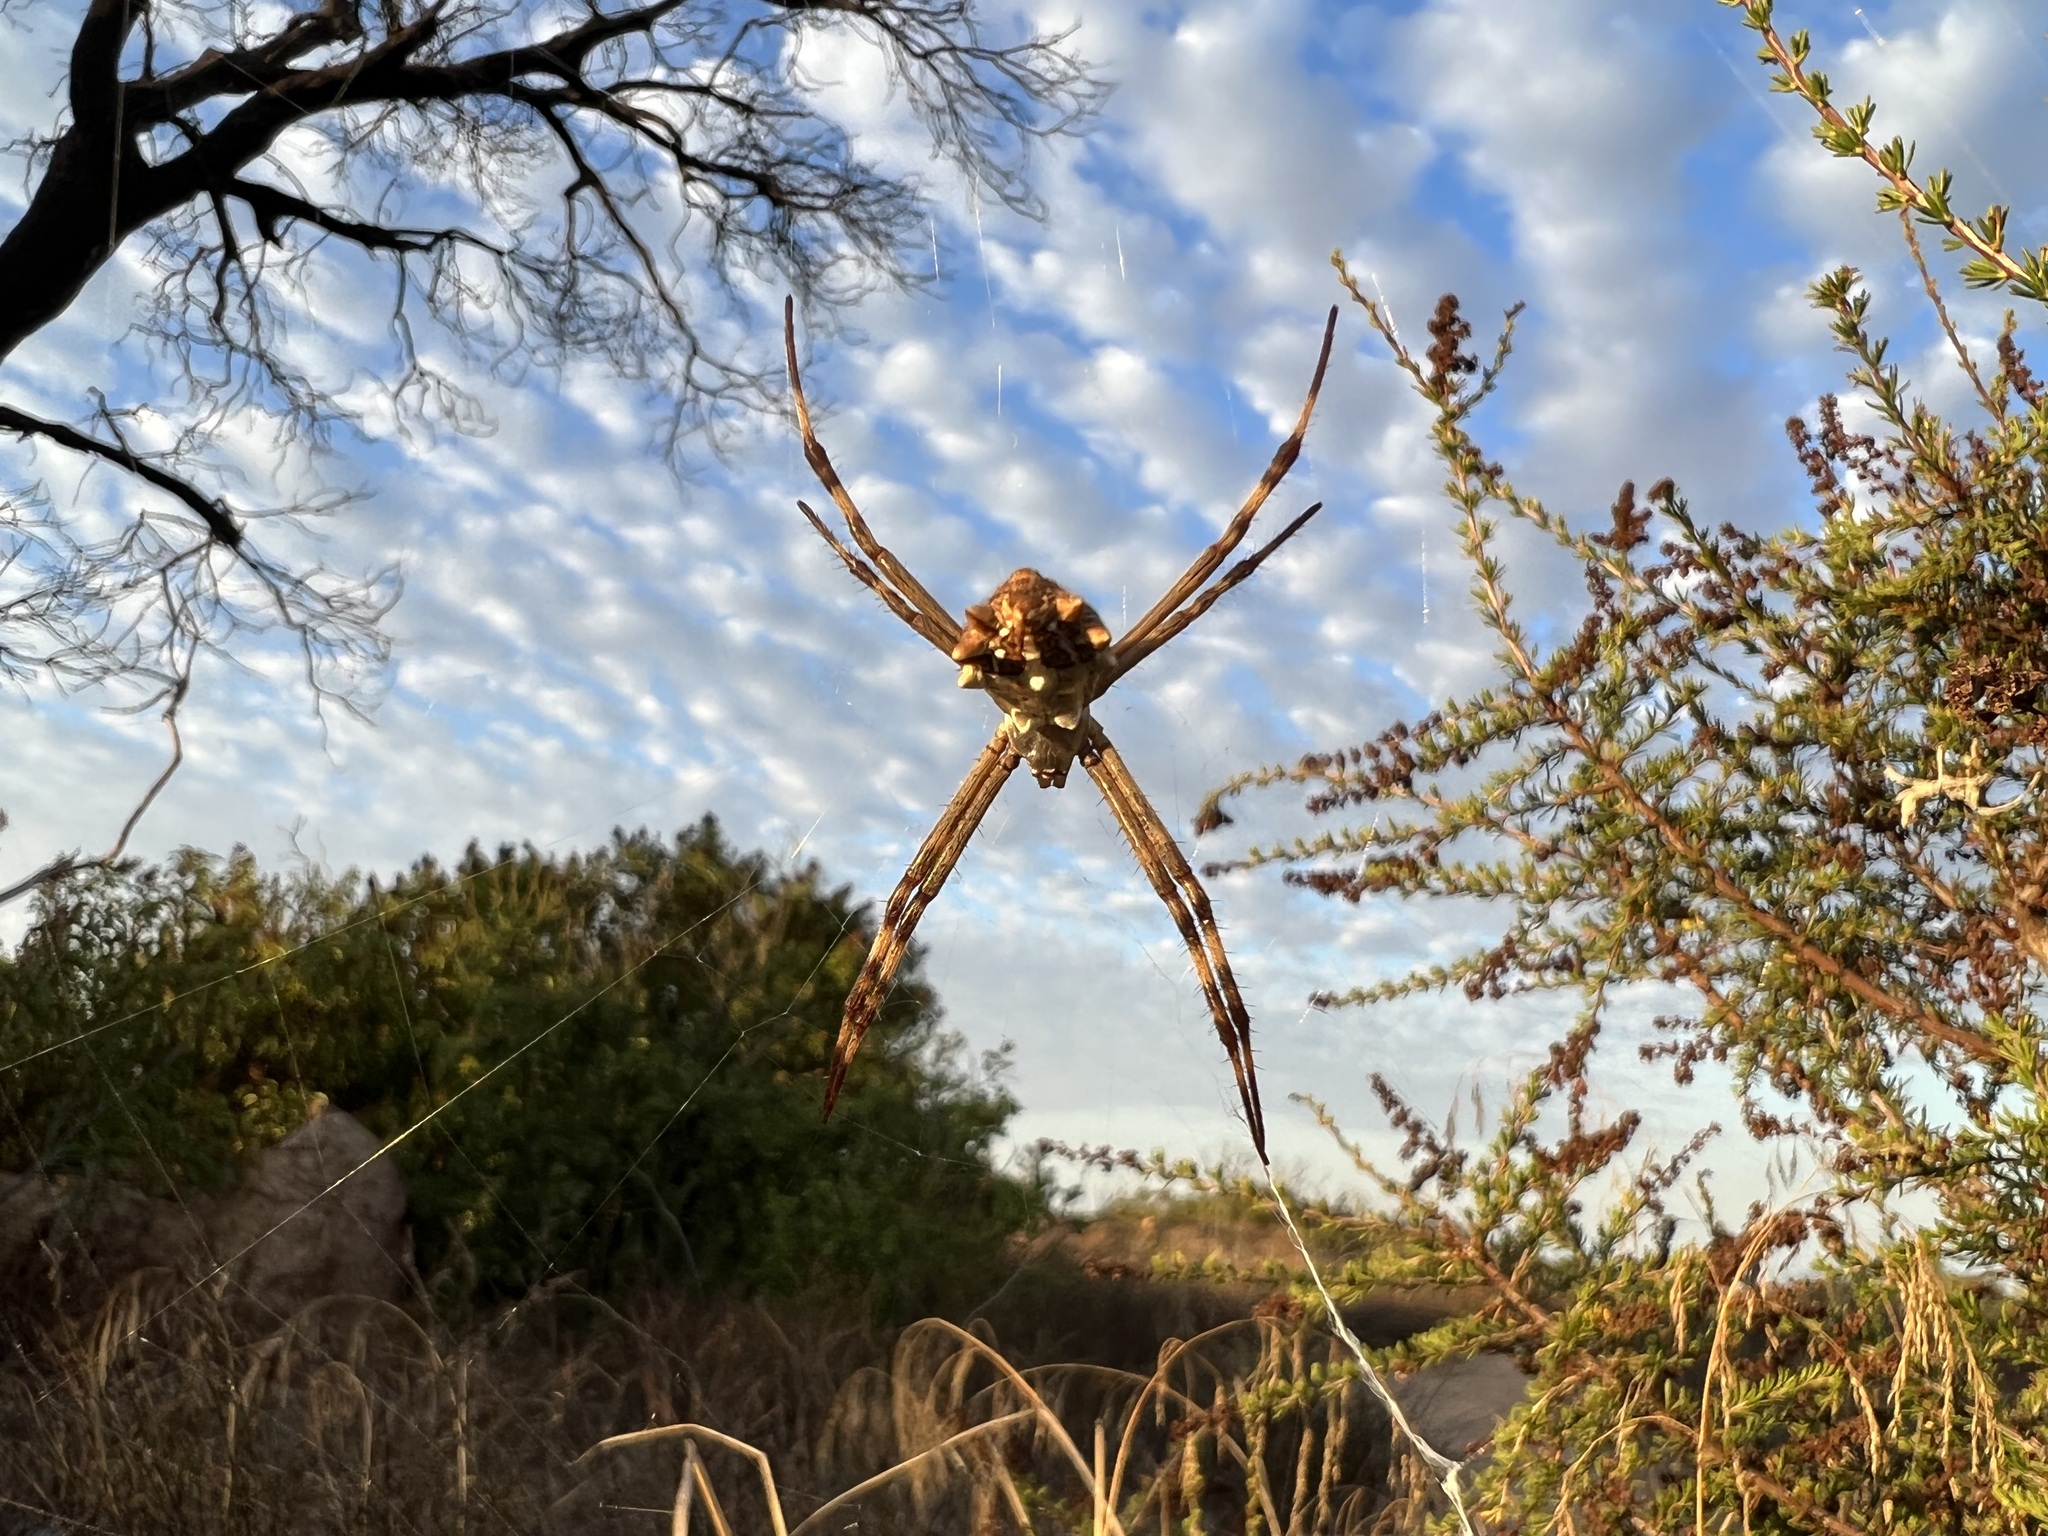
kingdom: Animalia
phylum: Arthropoda
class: Arachnida
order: Araneae
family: Araneidae
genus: Argiope
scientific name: Argiope argentata
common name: Orb weavers
